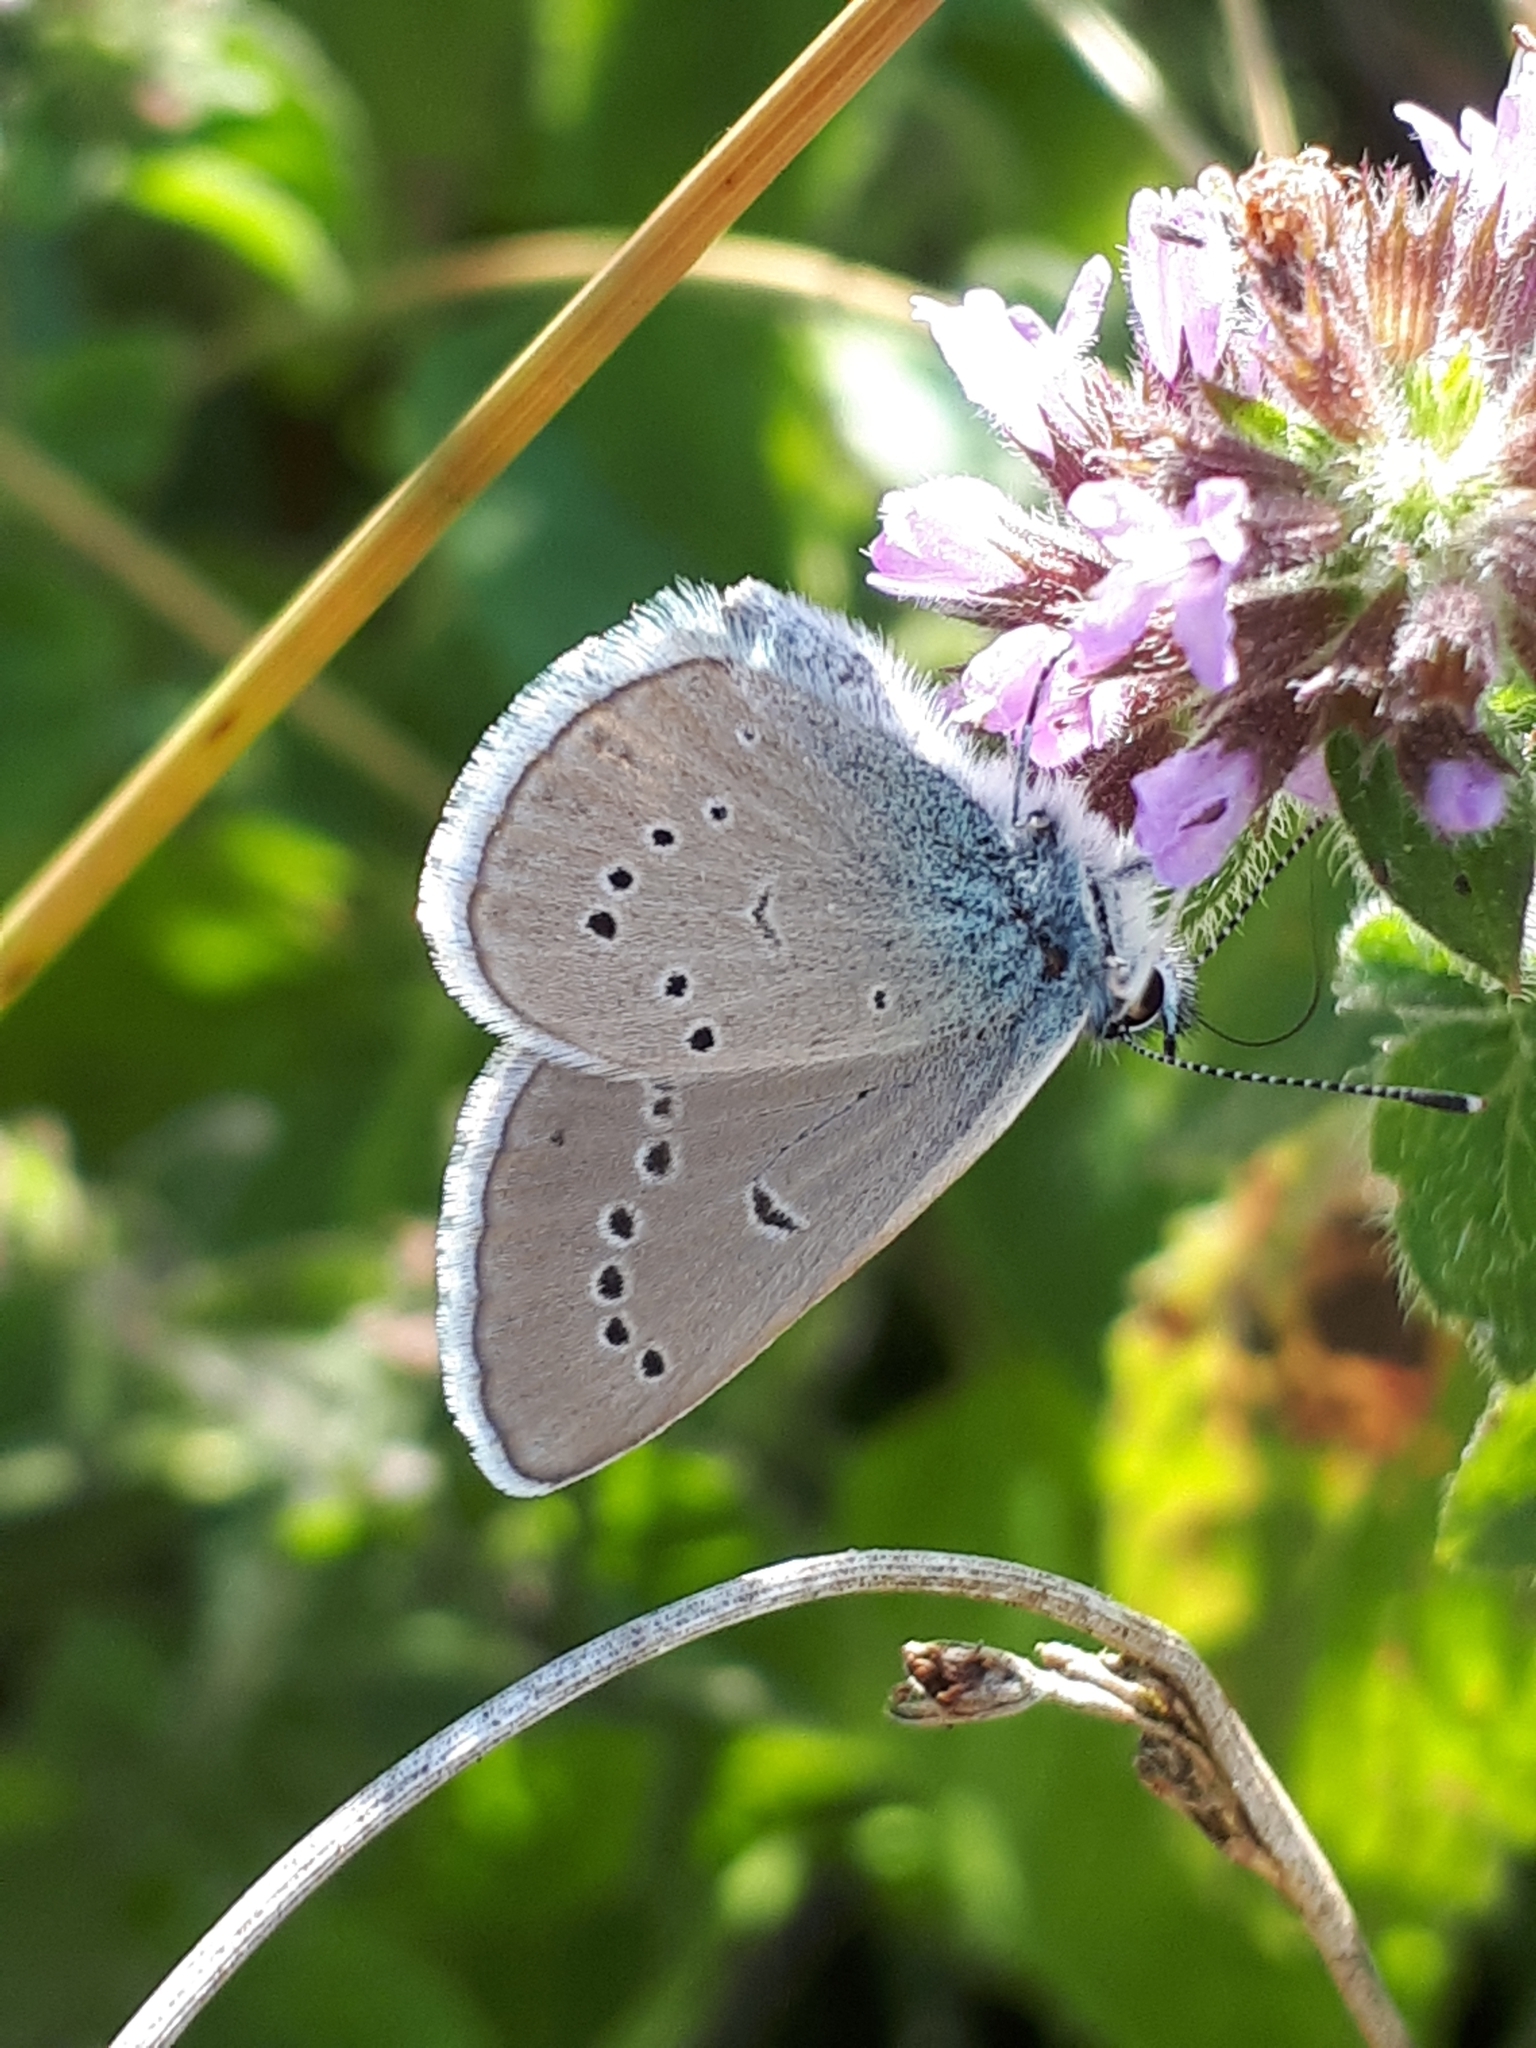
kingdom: Animalia
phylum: Arthropoda
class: Insecta
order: Lepidoptera
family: Lycaenidae
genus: Cyaniris
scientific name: Cyaniris semiargus
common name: Mazarine blue
